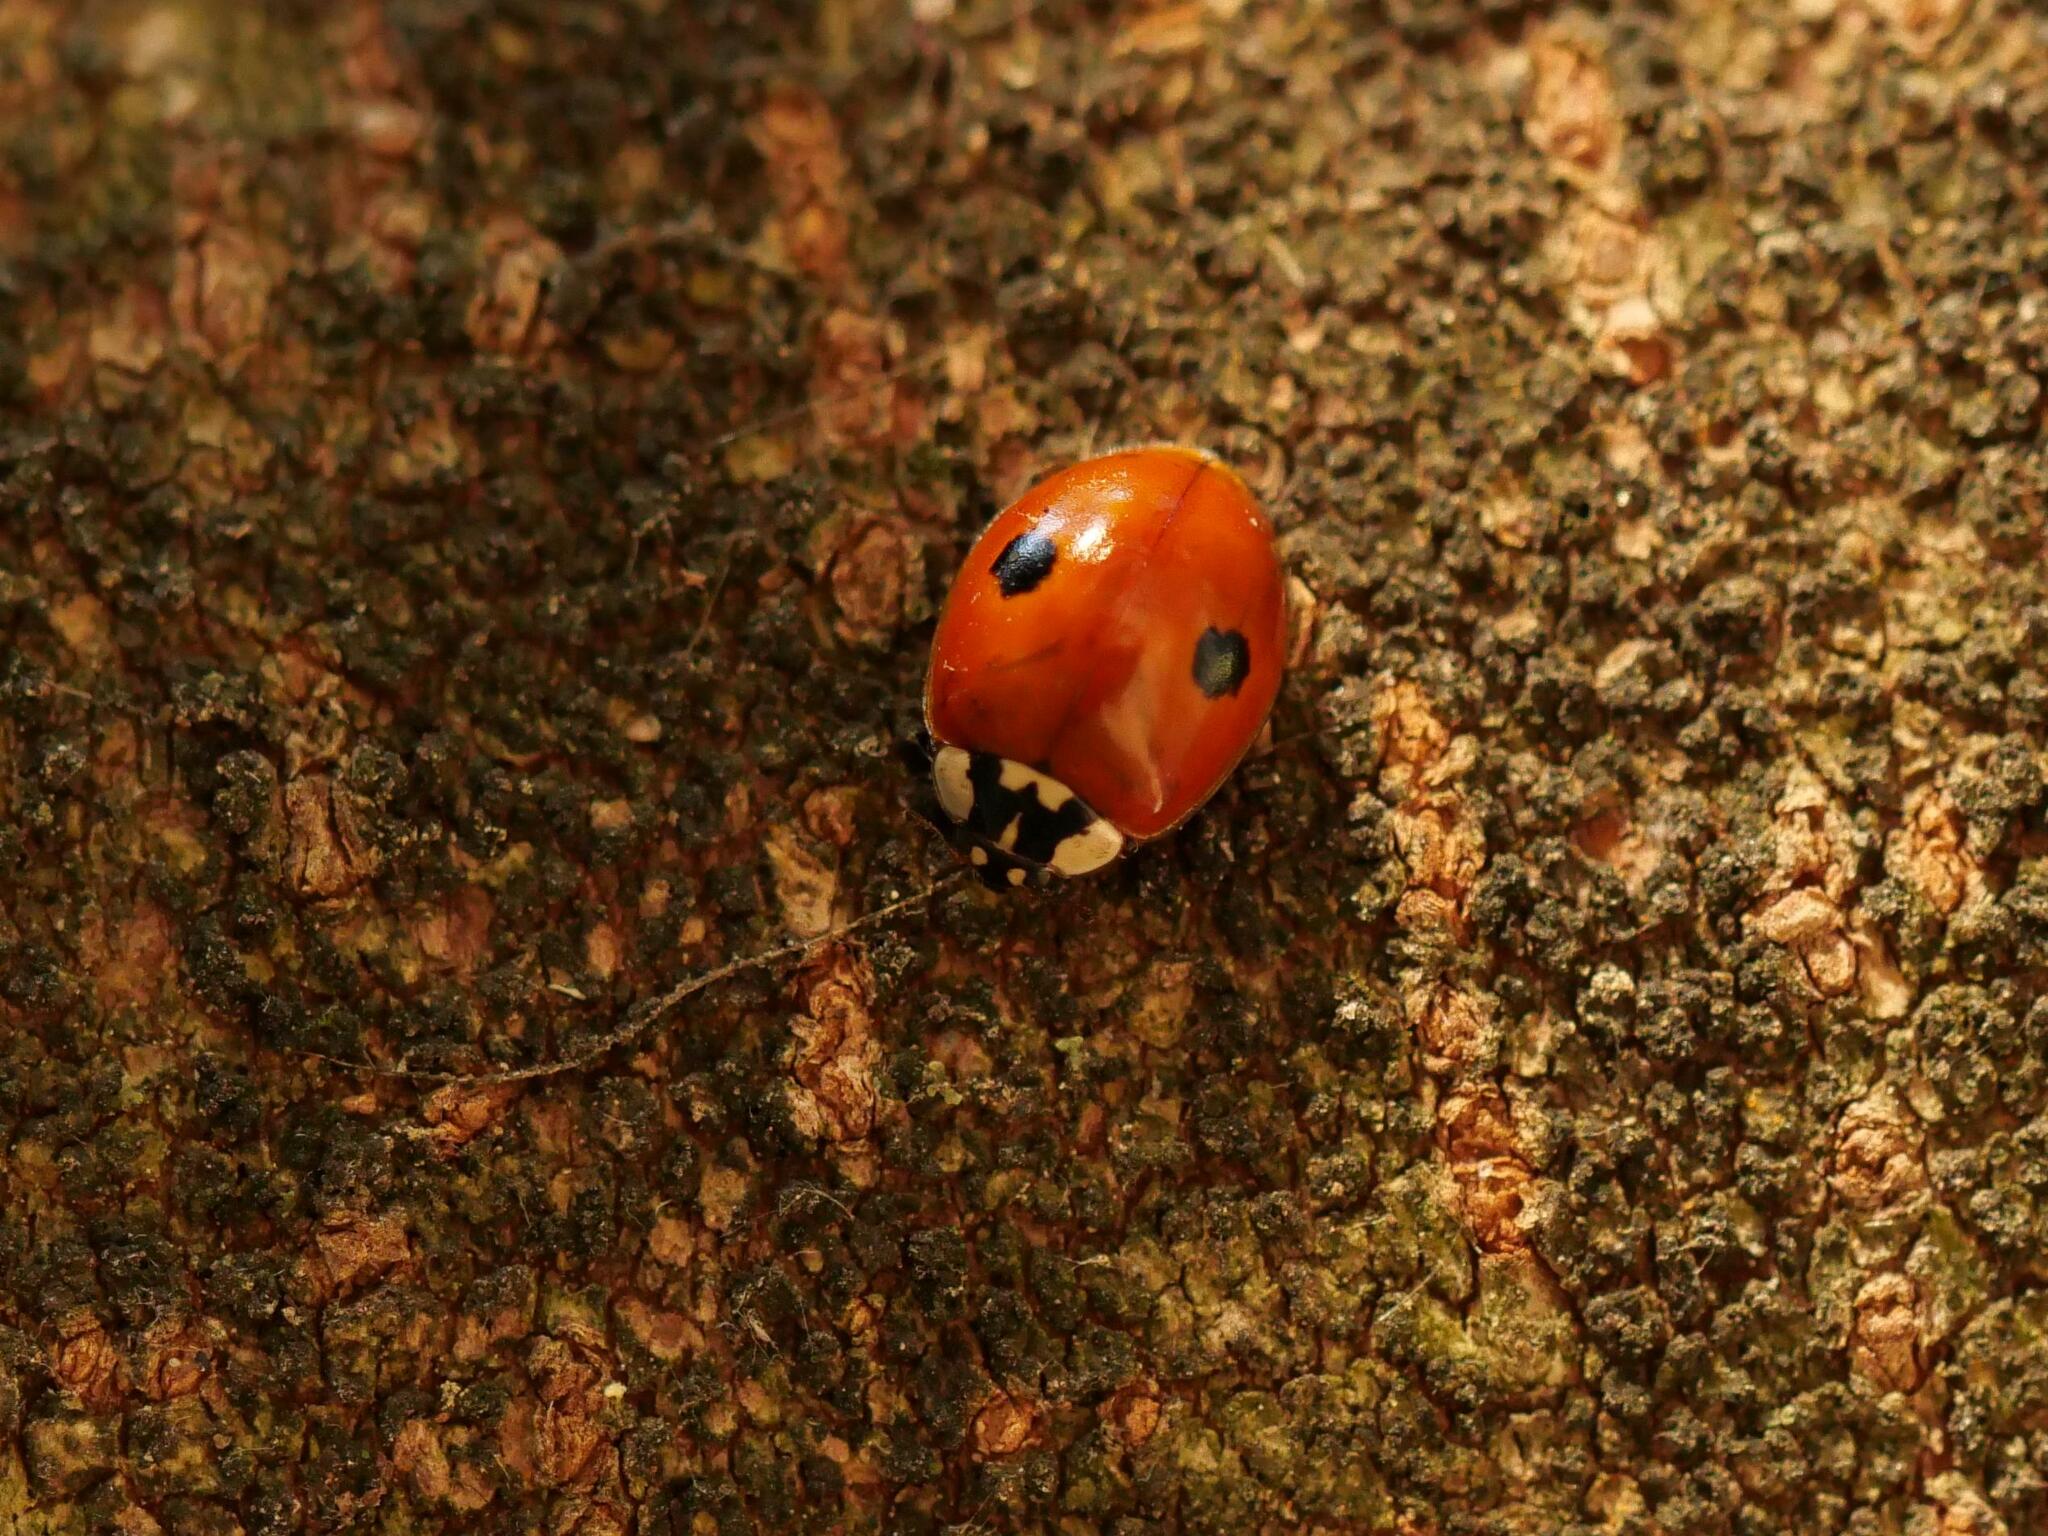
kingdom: Animalia
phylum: Arthropoda
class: Insecta
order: Coleoptera
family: Coccinellidae
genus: Adalia
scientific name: Adalia bipunctata
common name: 2-spot ladybird
